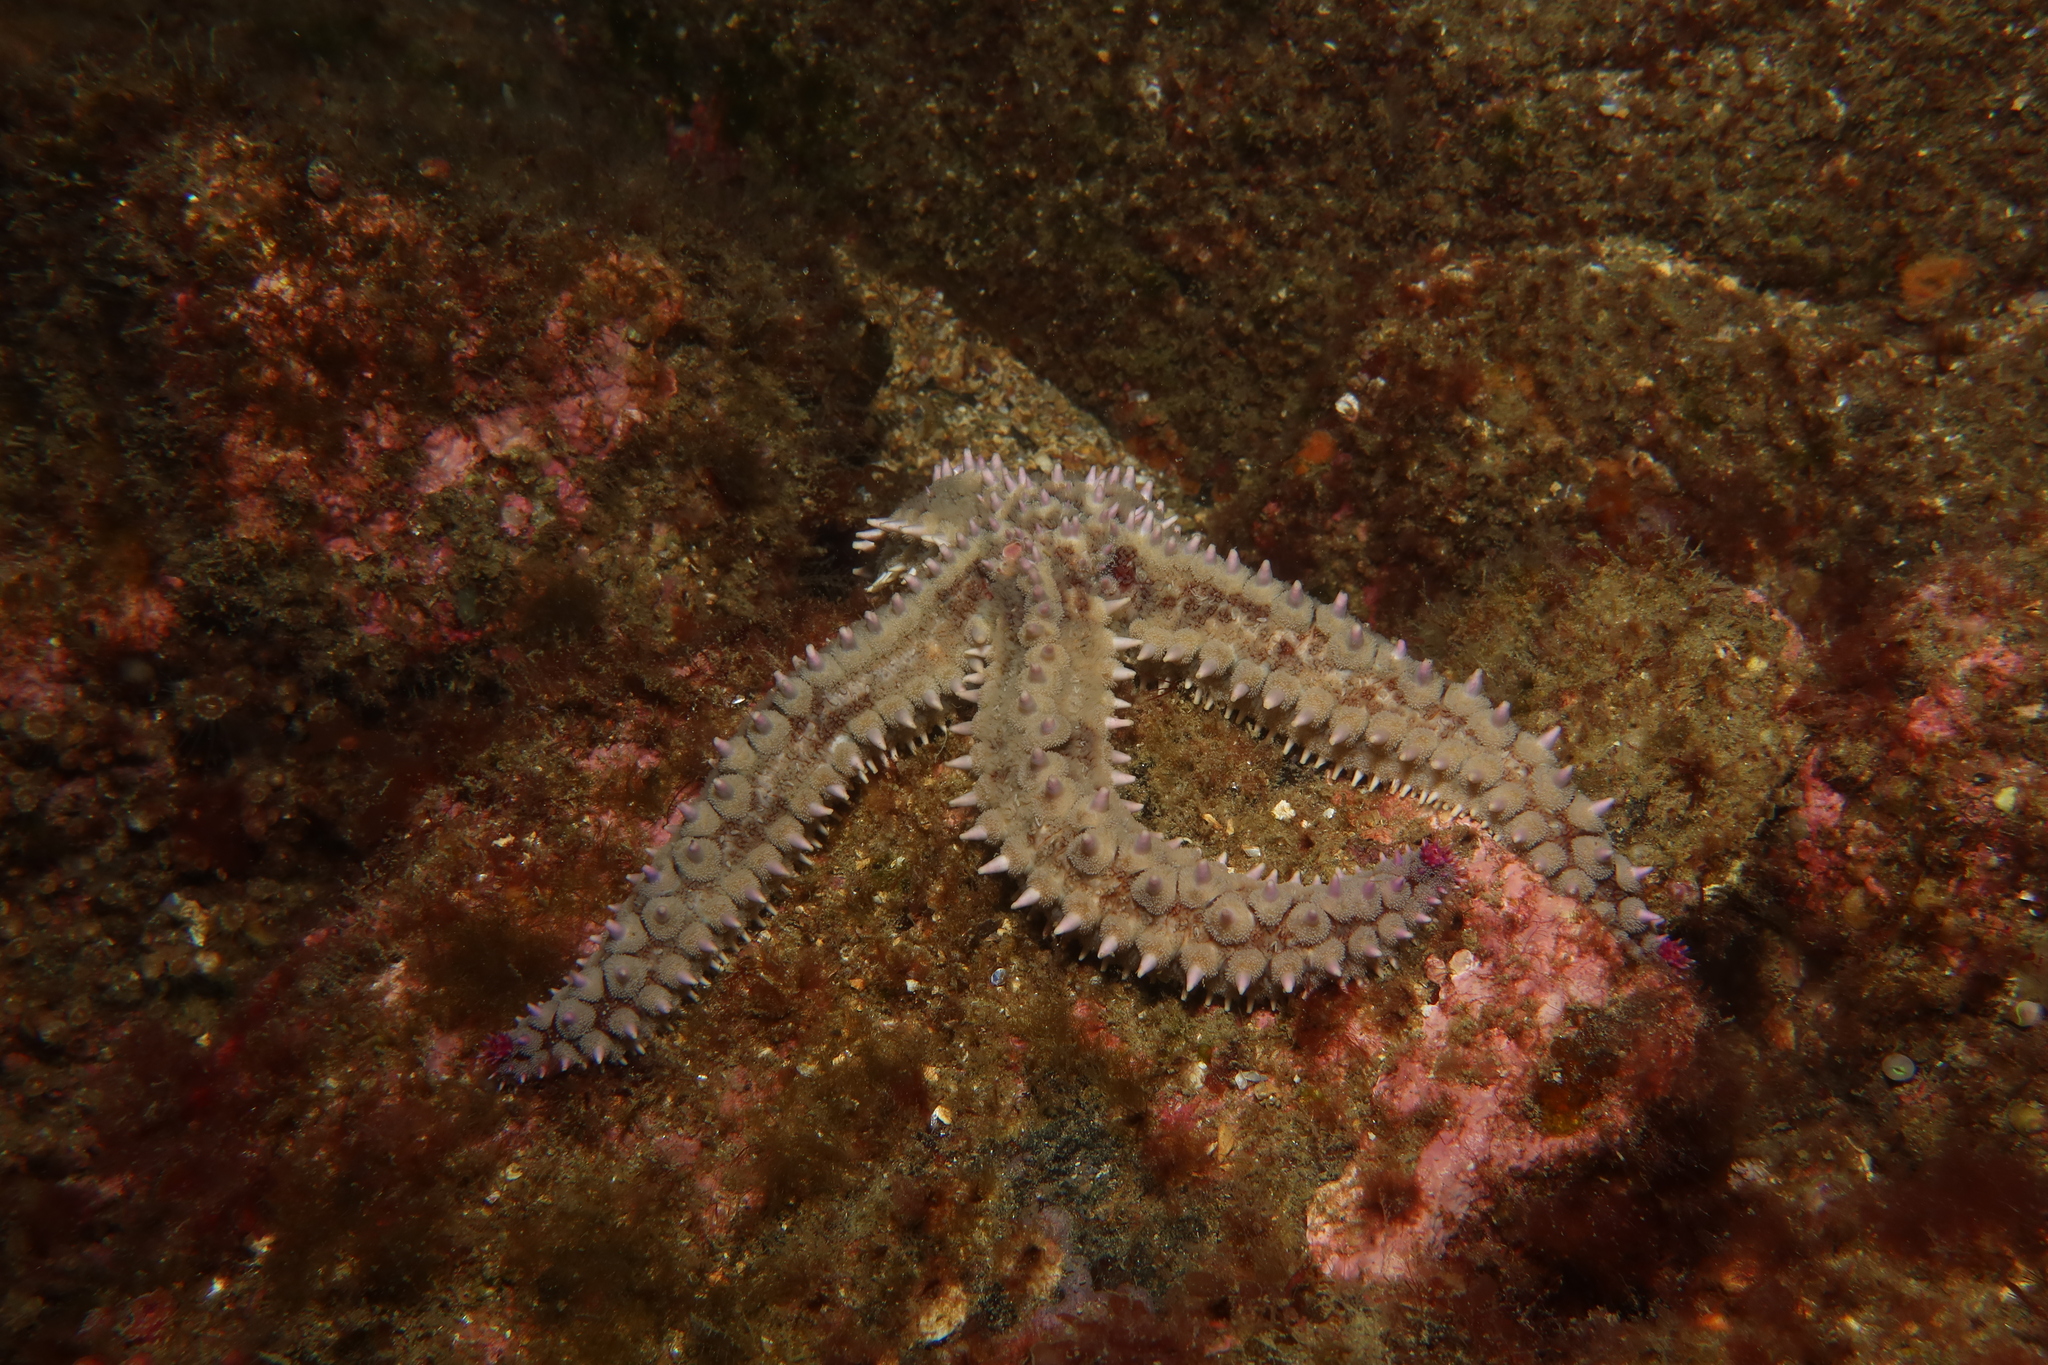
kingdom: Animalia
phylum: Echinodermata
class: Asteroidea
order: Forcipulatida
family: Asteriidae
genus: Marthasterias
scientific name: Marthasterias glacialis
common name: Spiny starfish
